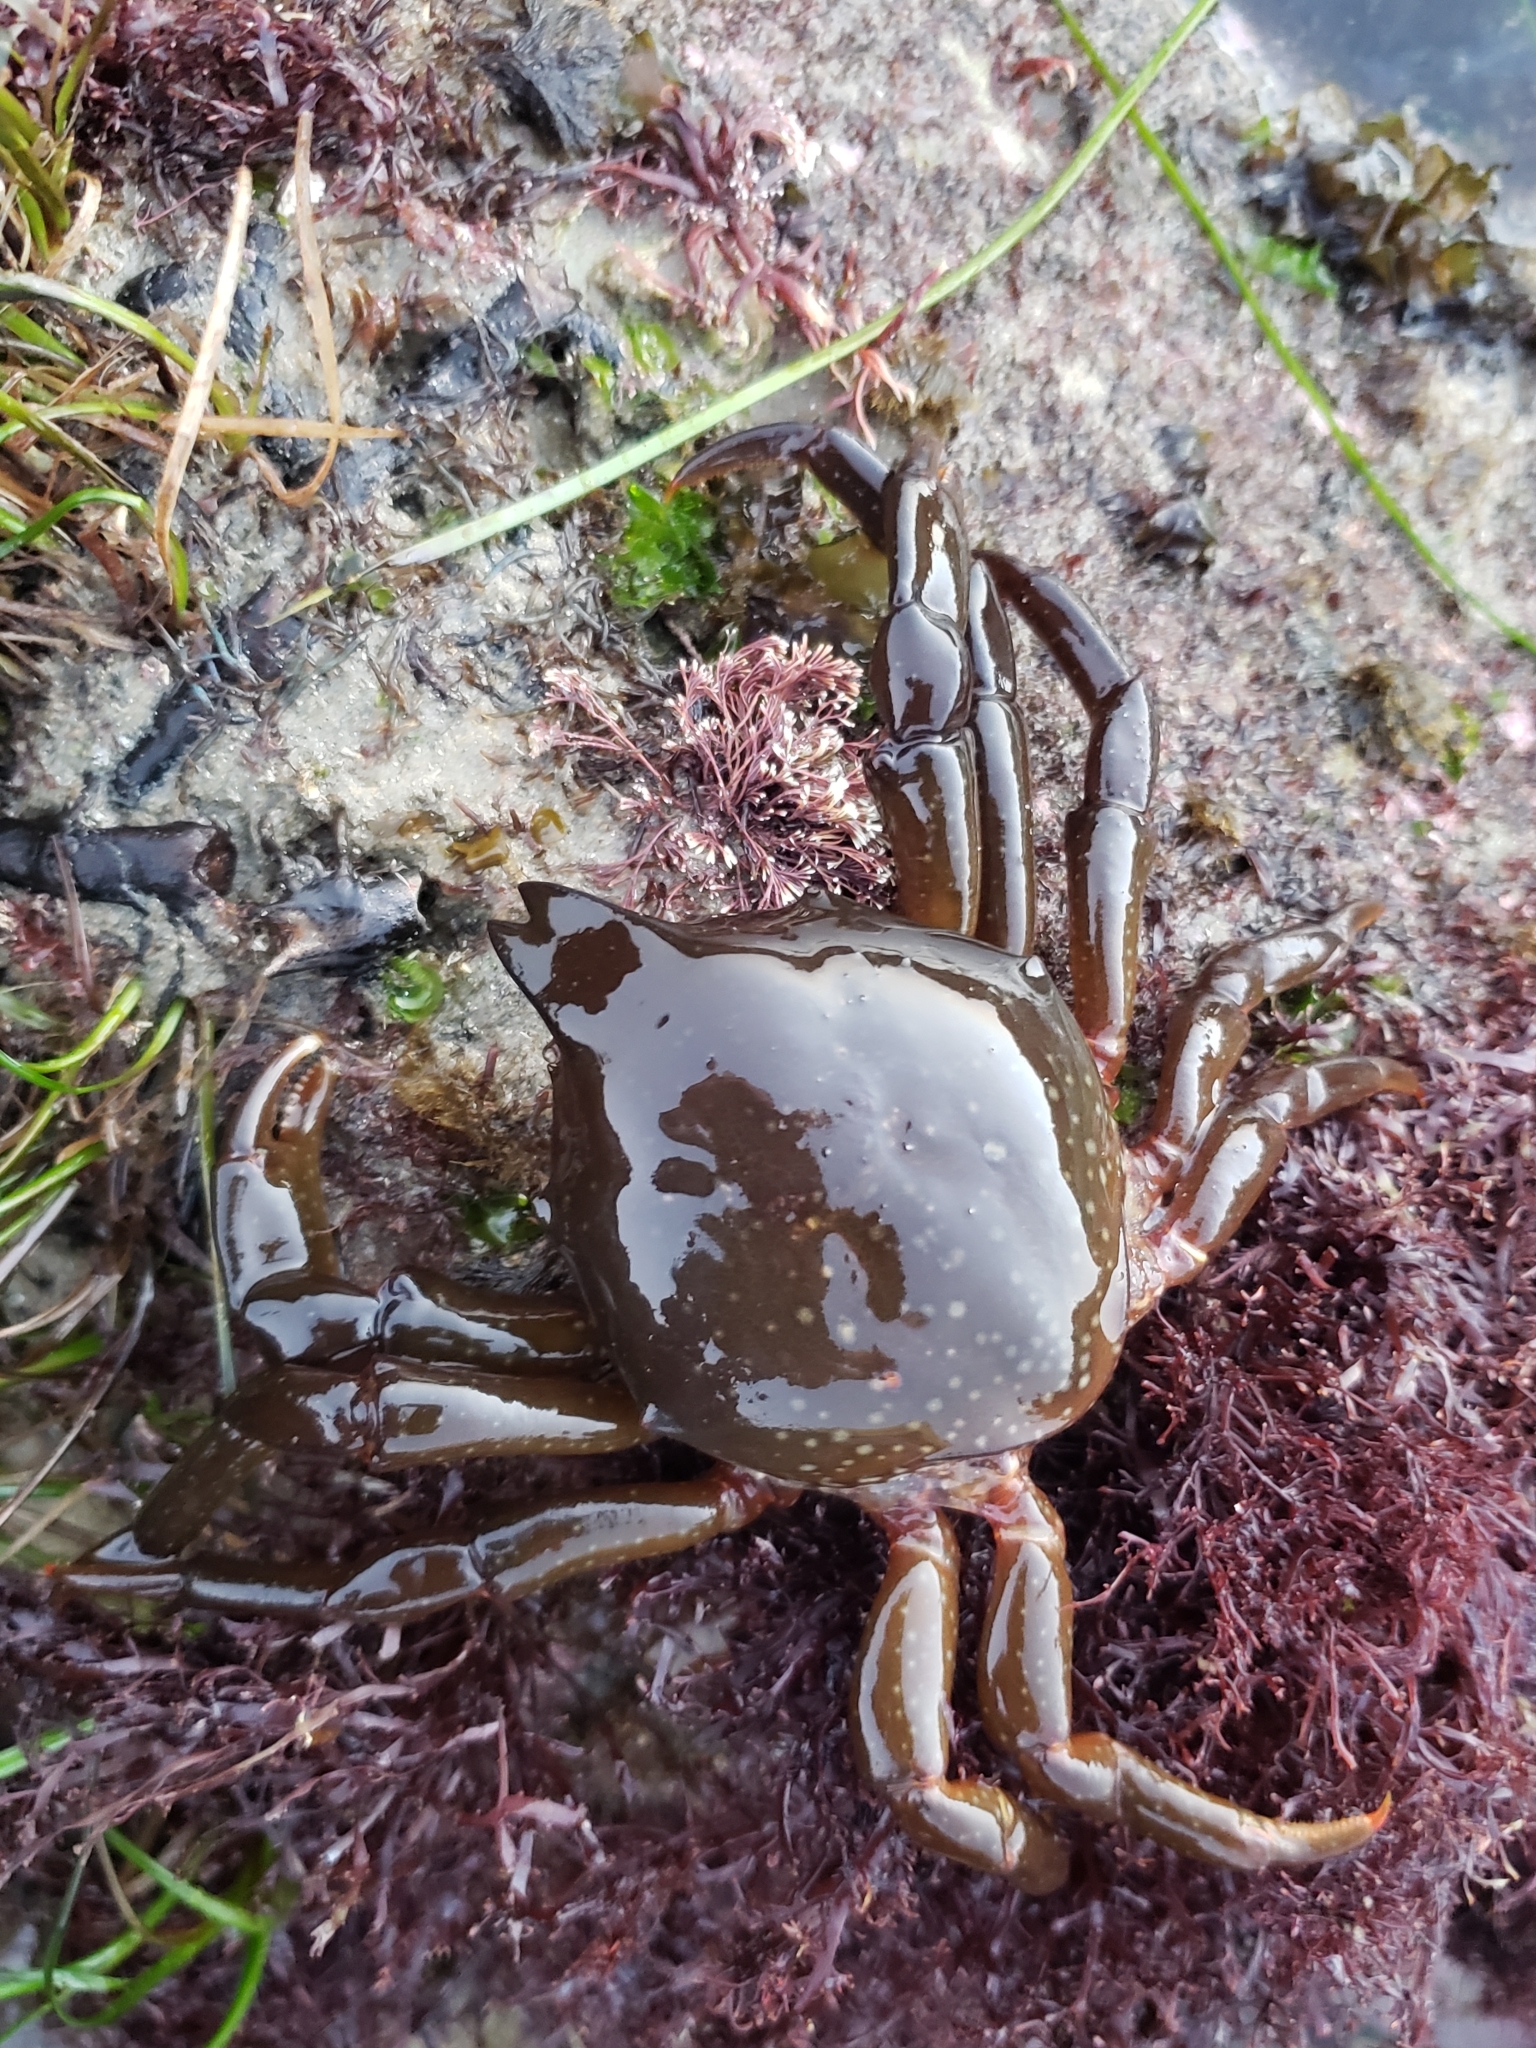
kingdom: Animalia
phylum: Arthropoda
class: Malacostraca
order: Decapoda
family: Epialtidae
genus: Taliepus
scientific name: Taliepus nuttallii
